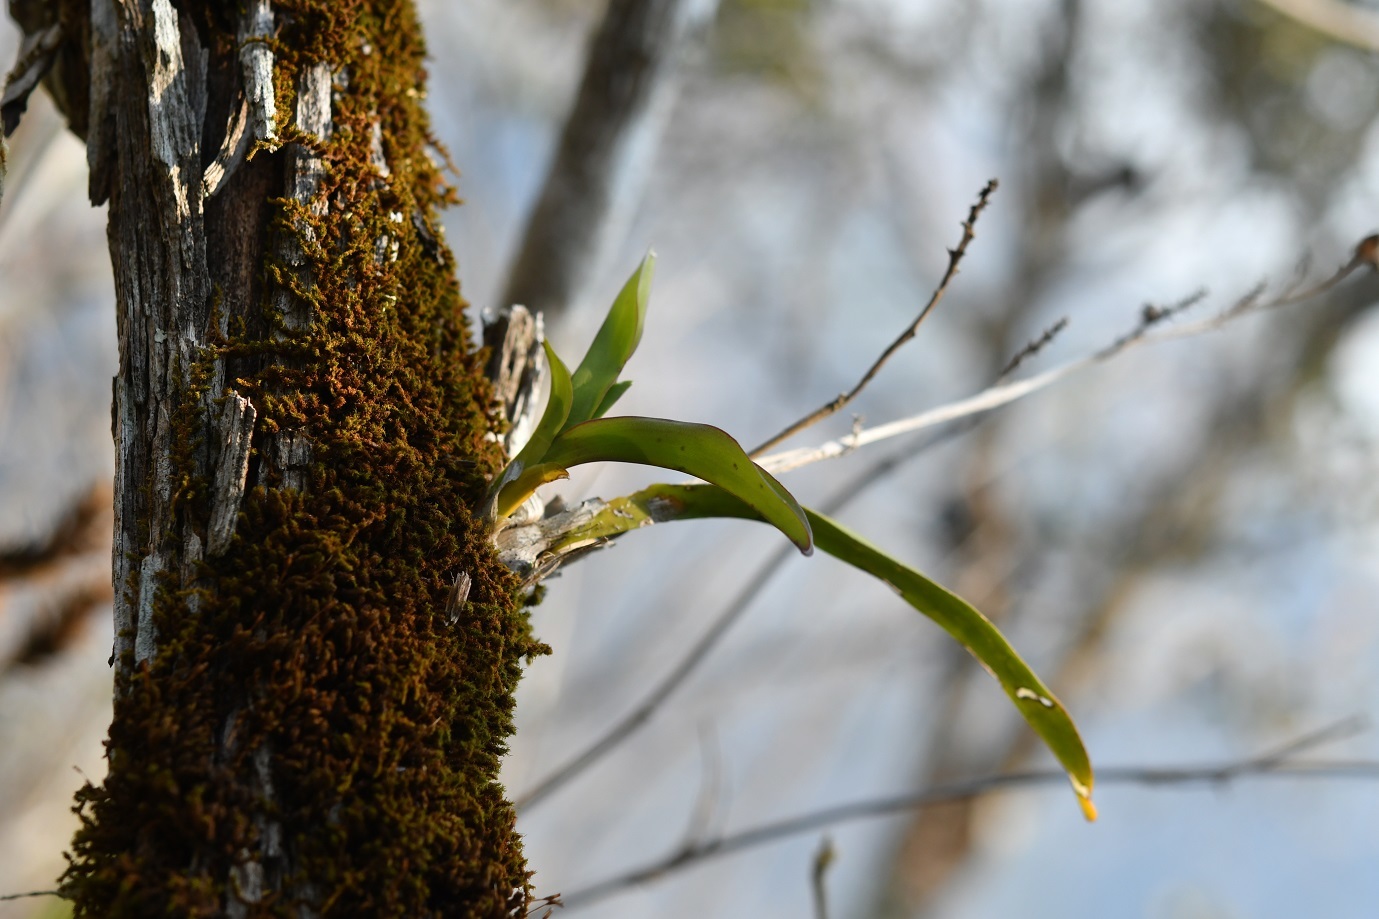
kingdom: Plantae
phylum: Tracheophyta
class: Liliopsida
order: Asparagales
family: Orchidaceae
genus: Polystachya
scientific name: Polystachya foliosa
